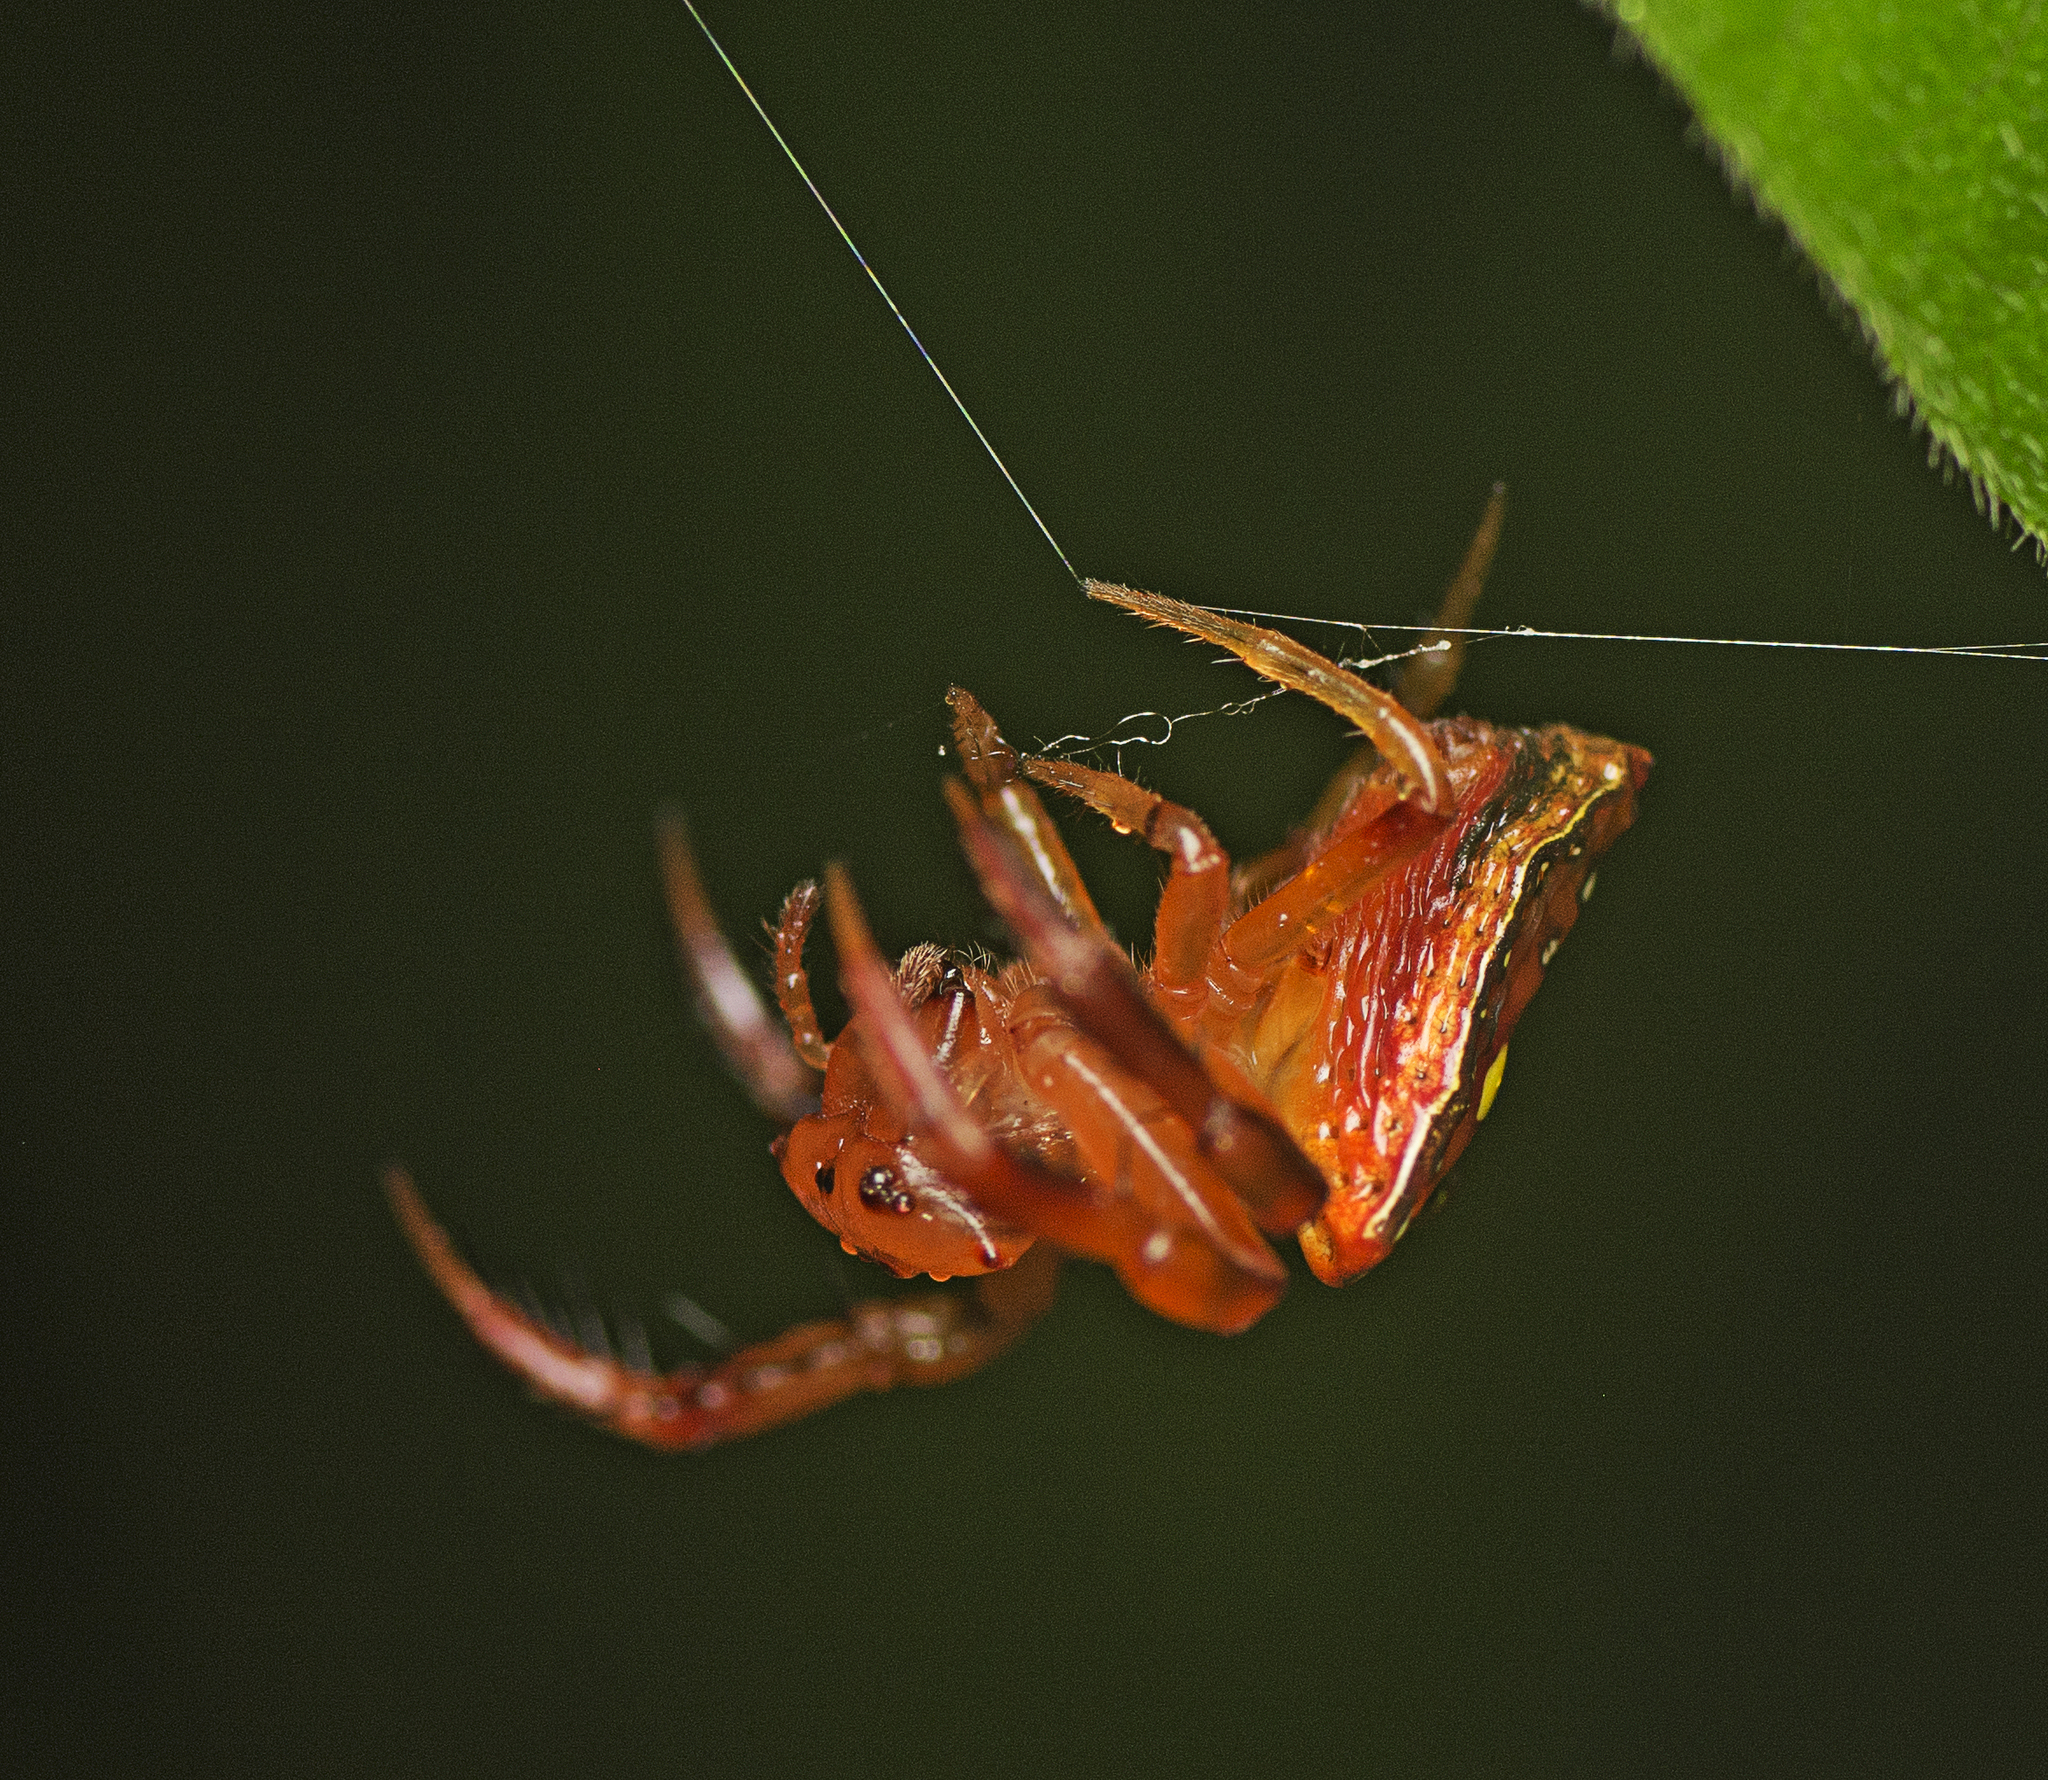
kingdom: Animalia
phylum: Arthropoda
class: Arachnida
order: Araneae
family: Arkyidae
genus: Arkys
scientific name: Arkys lancearius
